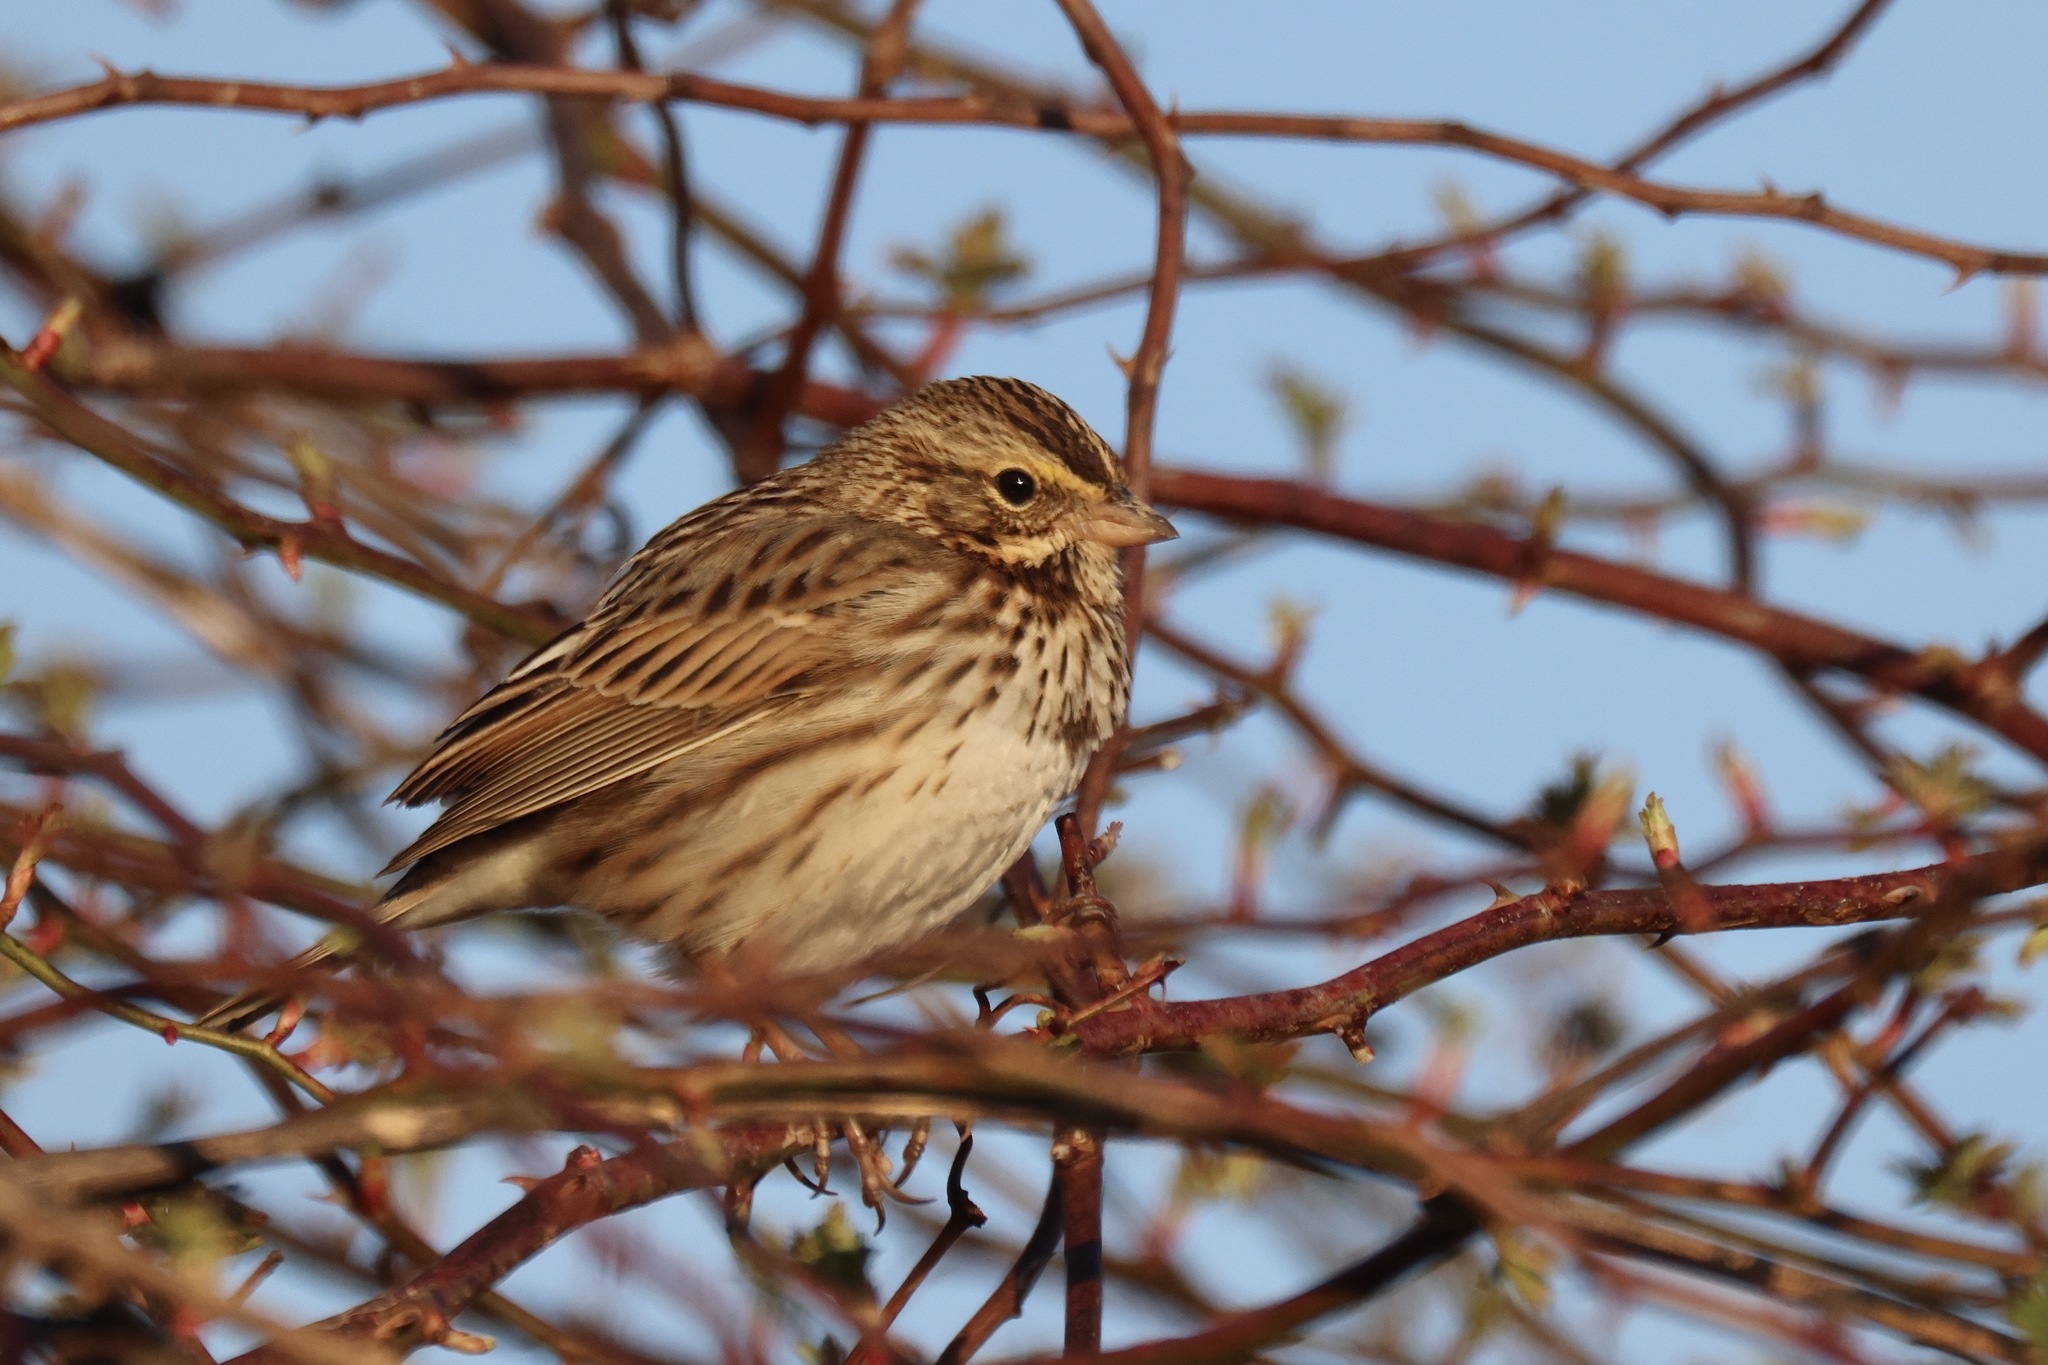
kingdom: Animalia
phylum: Chordata
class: Aves
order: Passeriformes
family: Passerellidae
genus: Passerculus
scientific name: Passerculus sandwichensis
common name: Savannah sparrow
